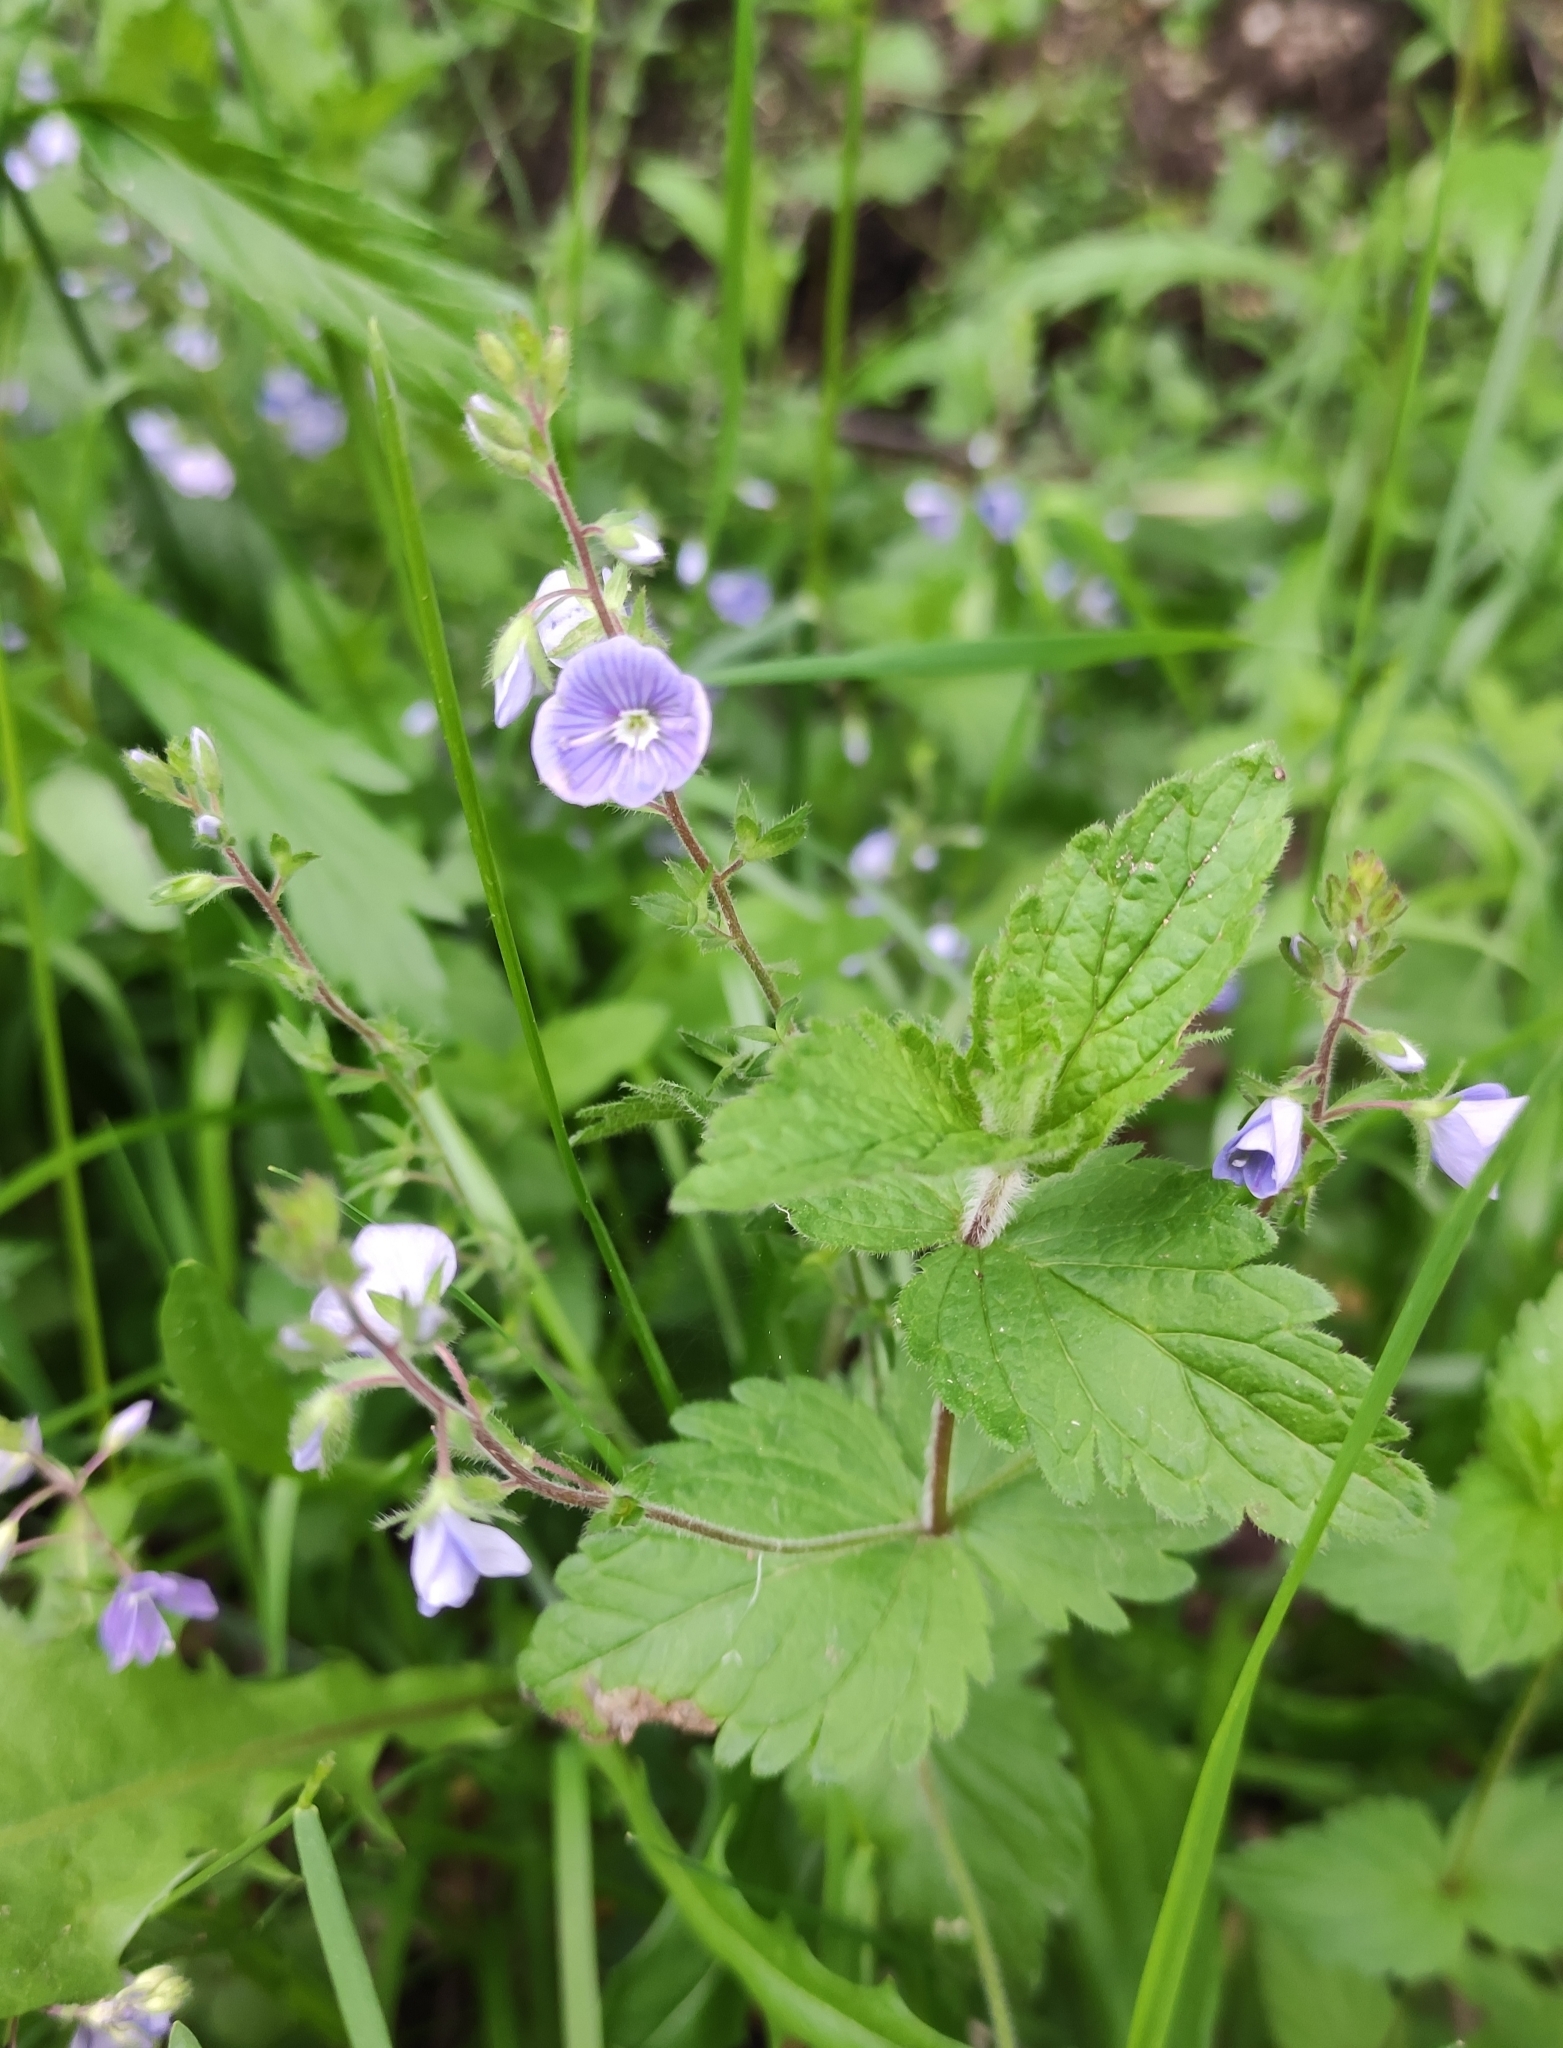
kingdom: Plantae
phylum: Tracheophyta
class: Magnoliopsida
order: Lamiales
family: Plantaginaceae
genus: Veronica
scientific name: Veronica chamaedrys
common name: Germander speedwell
